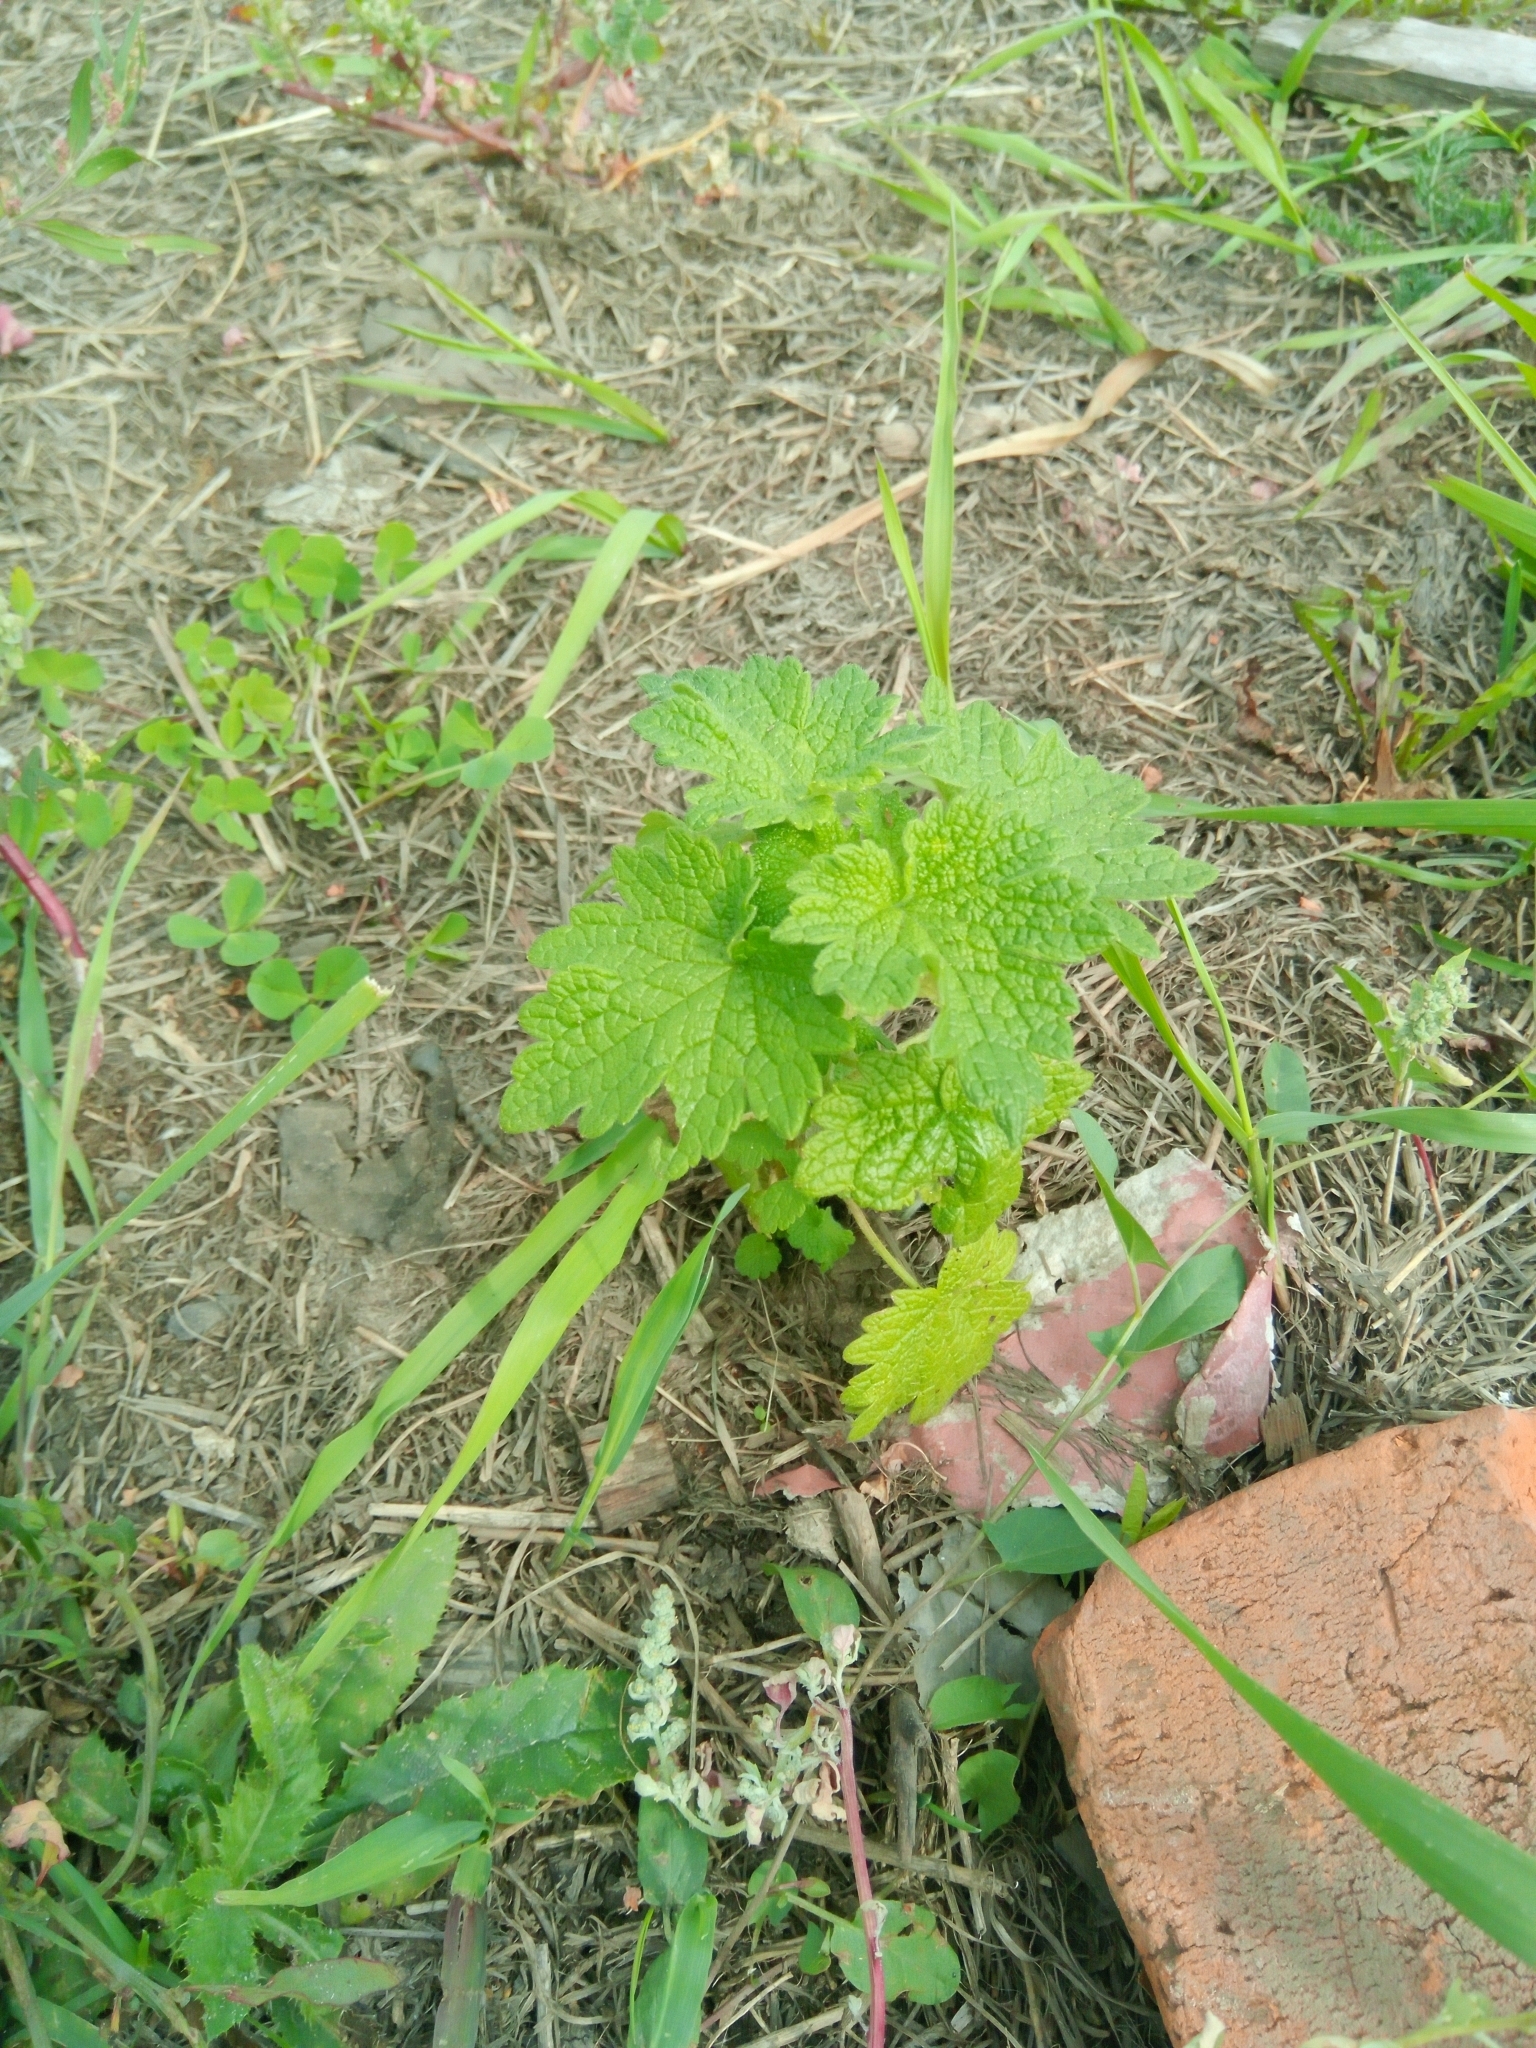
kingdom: Plantae
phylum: Tracheophyta
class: Magnoliopsida
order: Lamiales
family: Lamiaceae
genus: Leonurus
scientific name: Leonurus quinquelobatus
